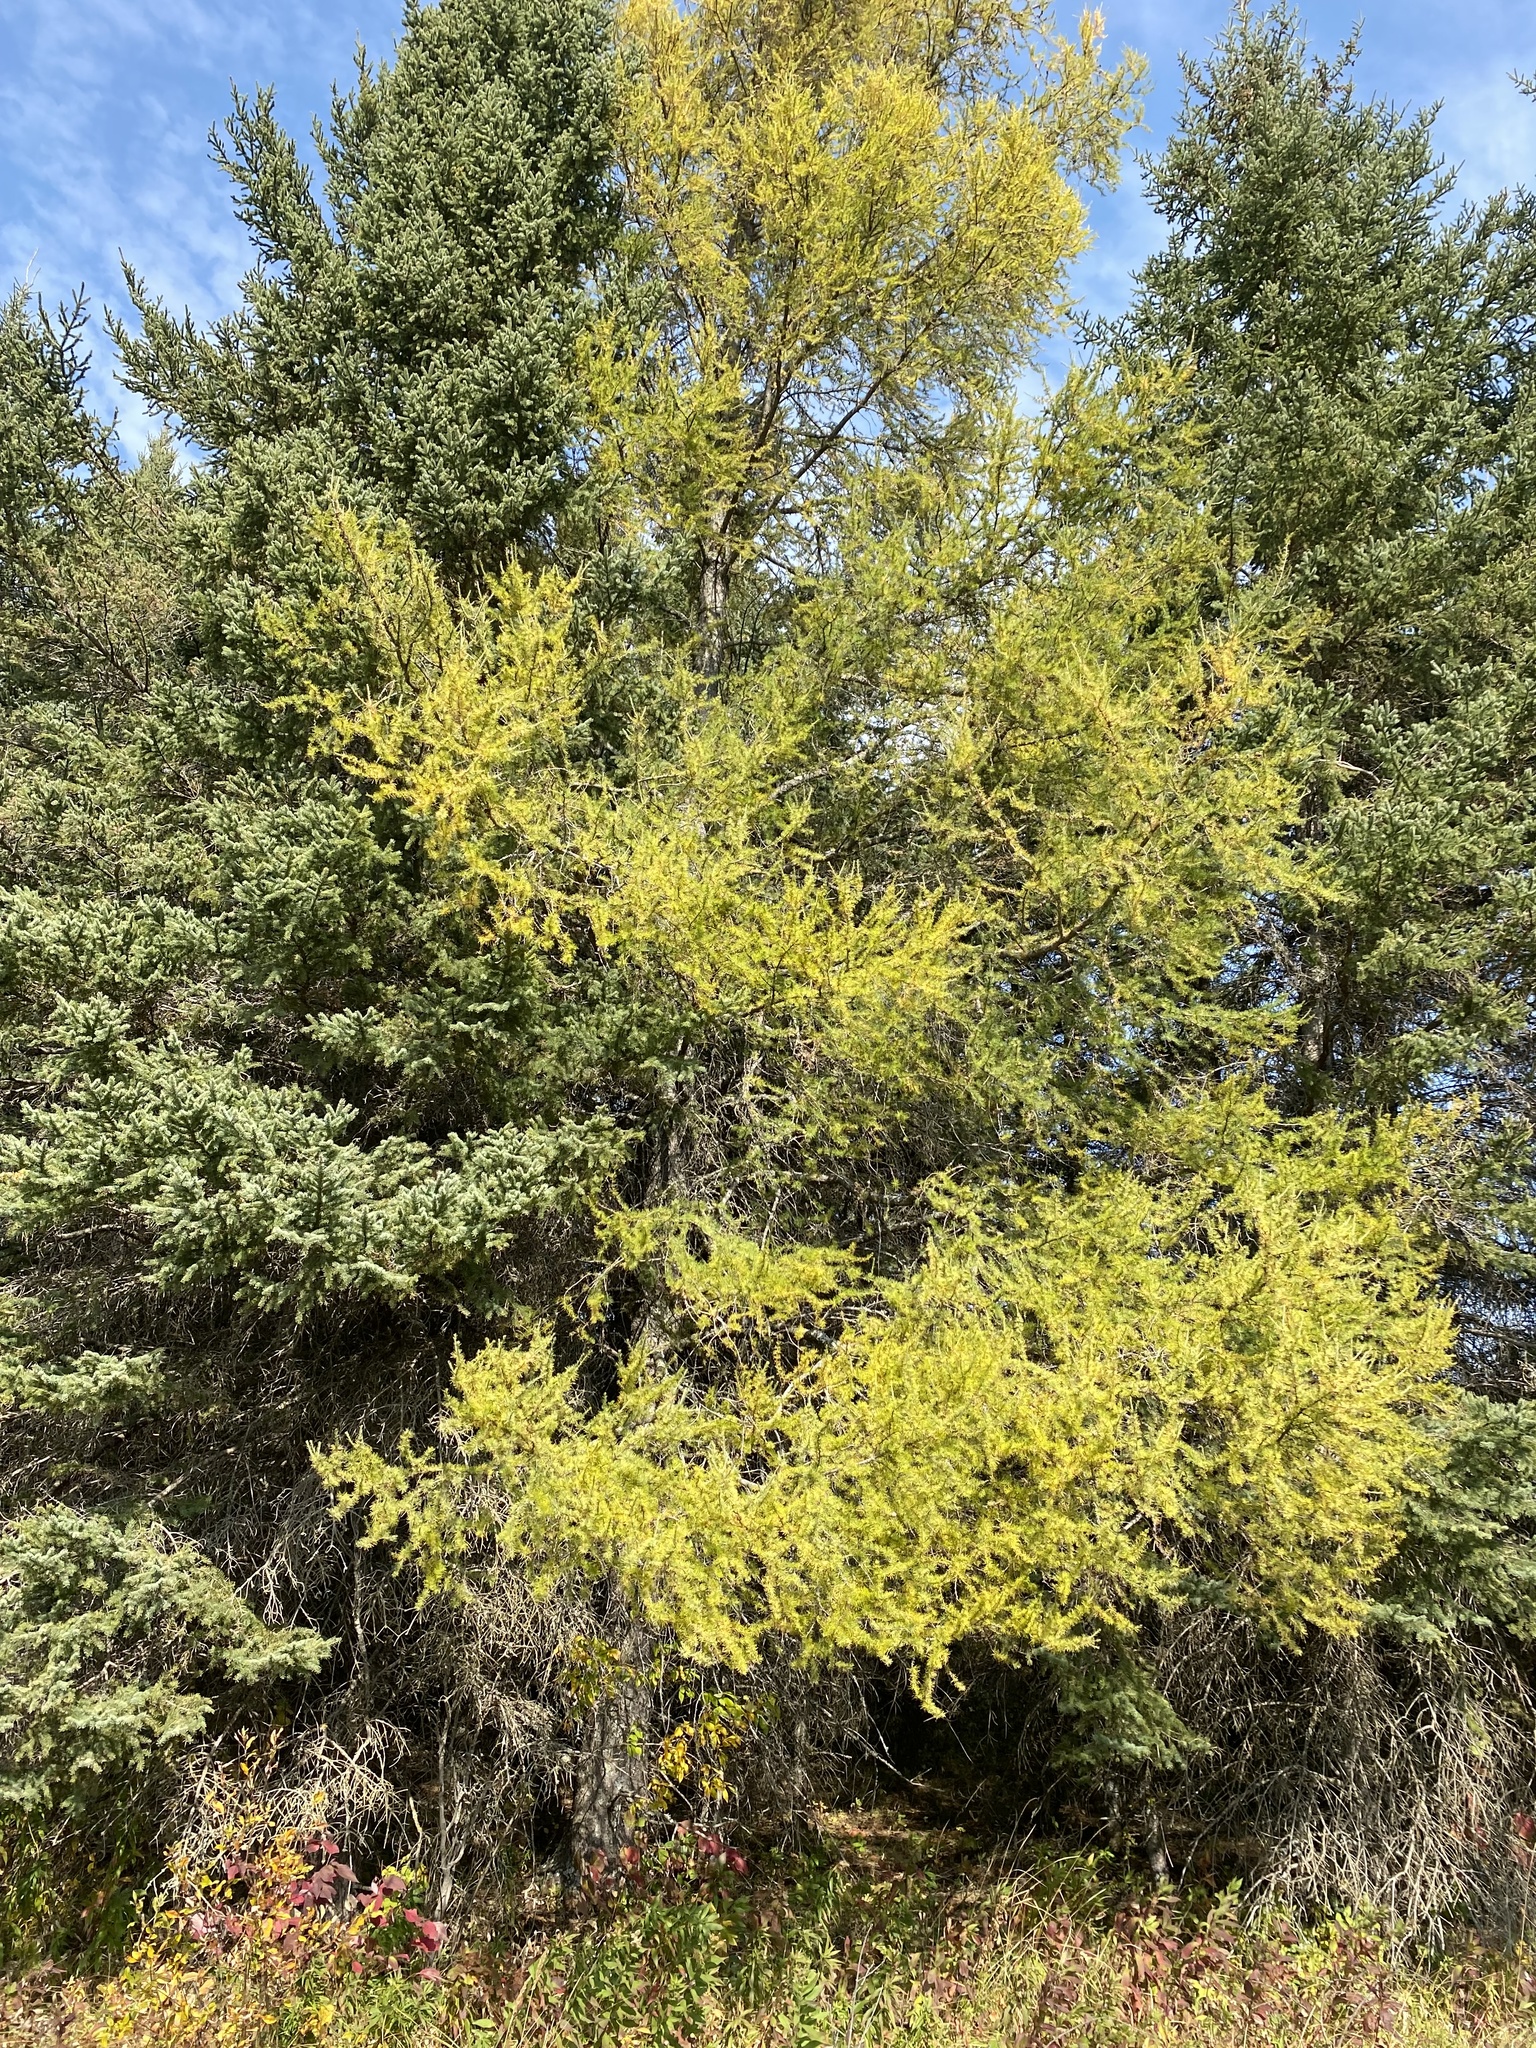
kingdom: Plantae
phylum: Tracheophyta
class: Pinopsida
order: Pinales
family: Pinaceae
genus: Larix
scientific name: Larix laricina
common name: American larch
